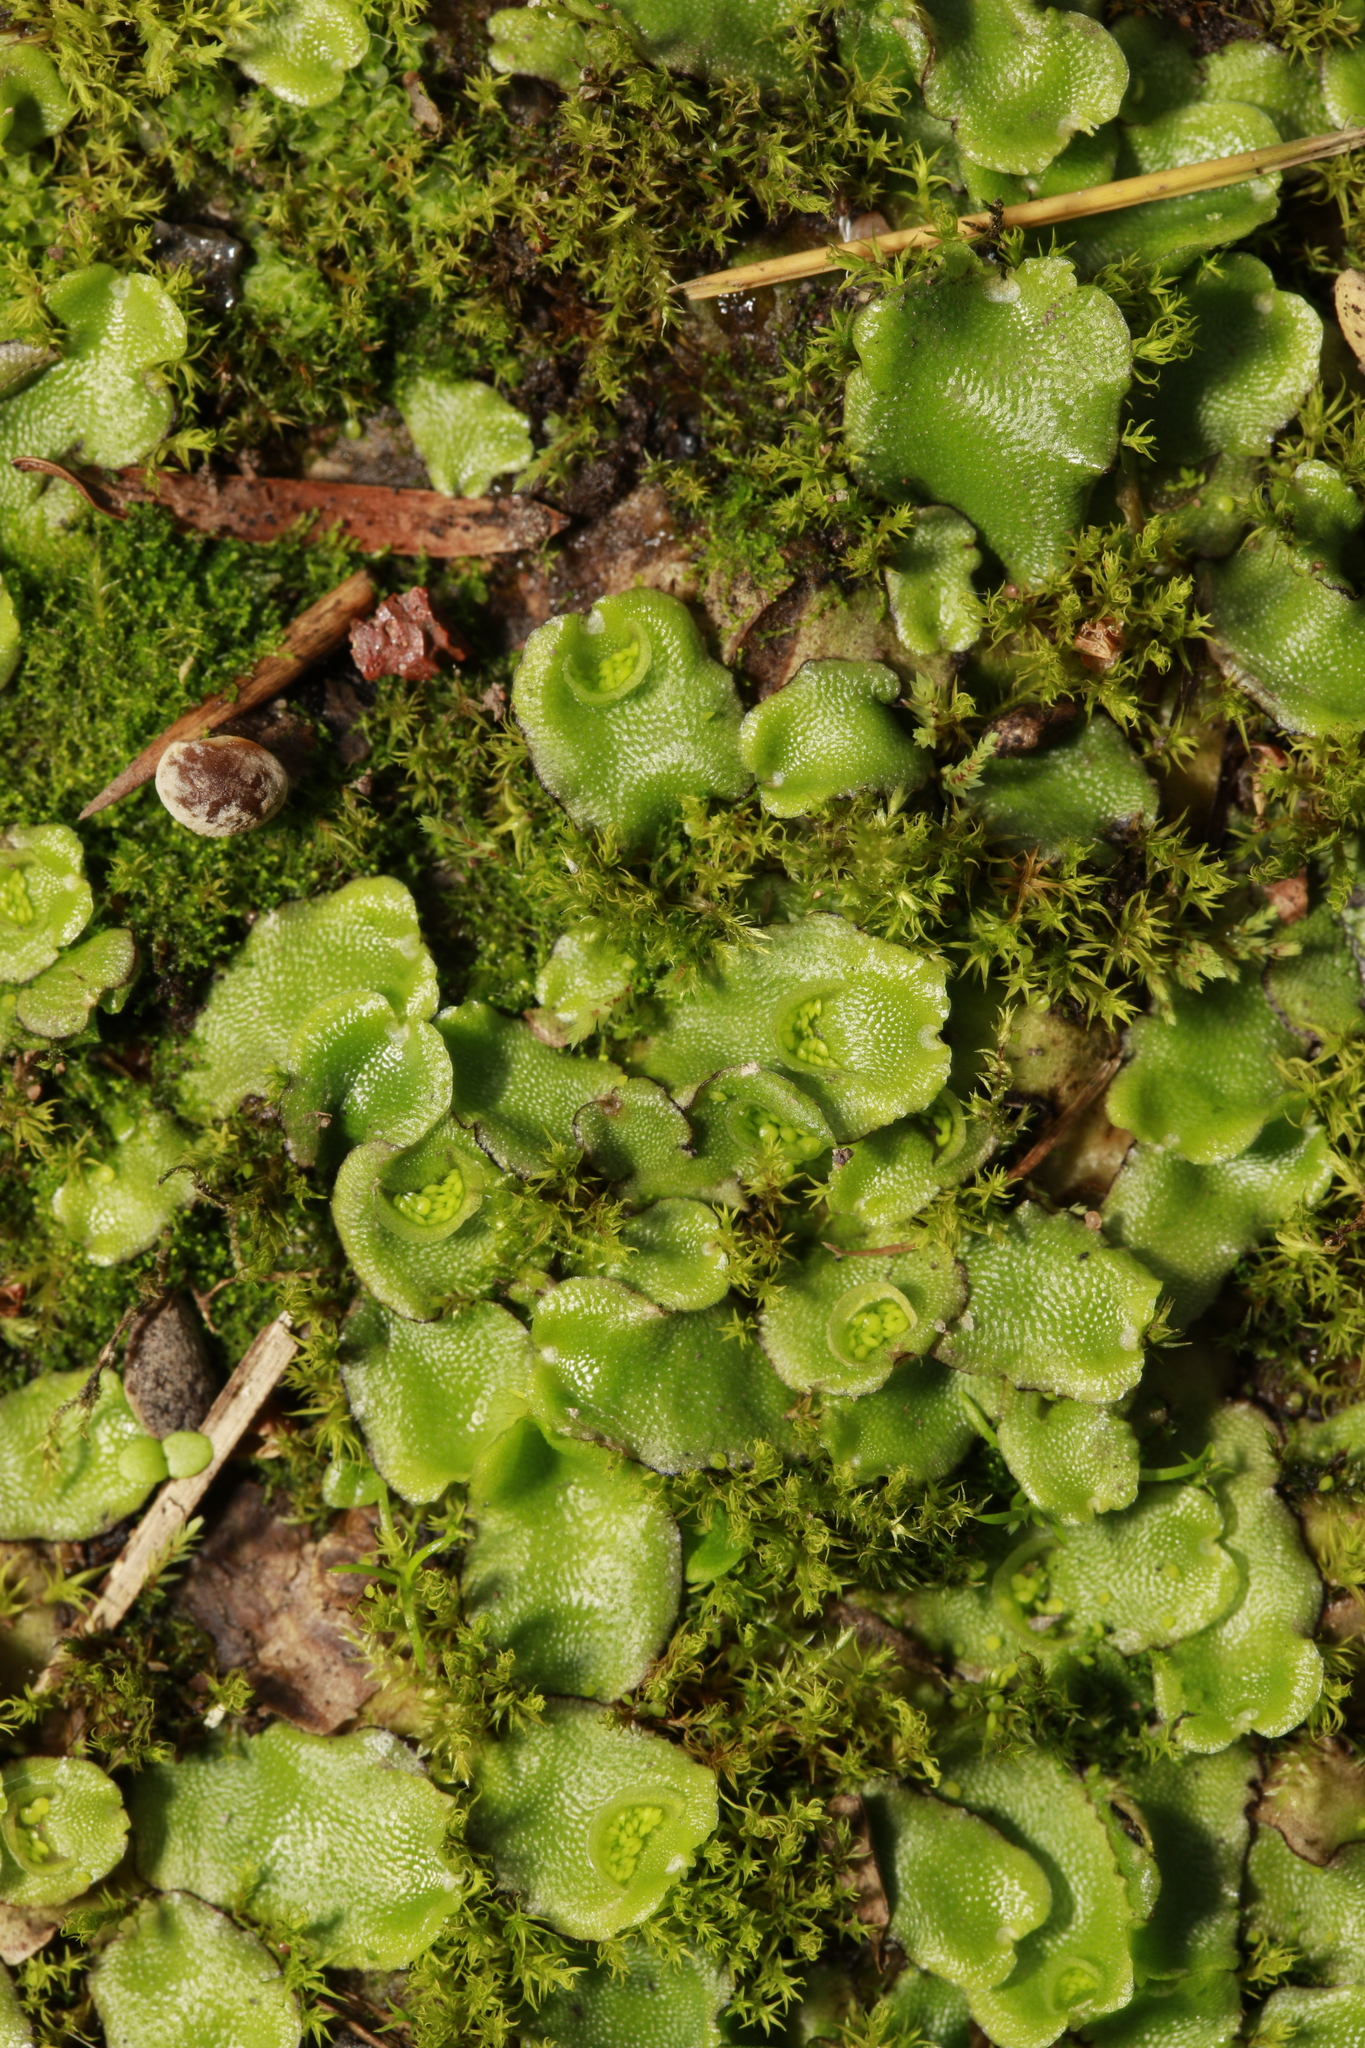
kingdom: Plantae
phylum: Marchantiophyta
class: Marchantiopsida
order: Lunulariales
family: Lunulariaceae
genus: Lunularia
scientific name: Lunularia cruciata
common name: Crescent-cup liverwort
